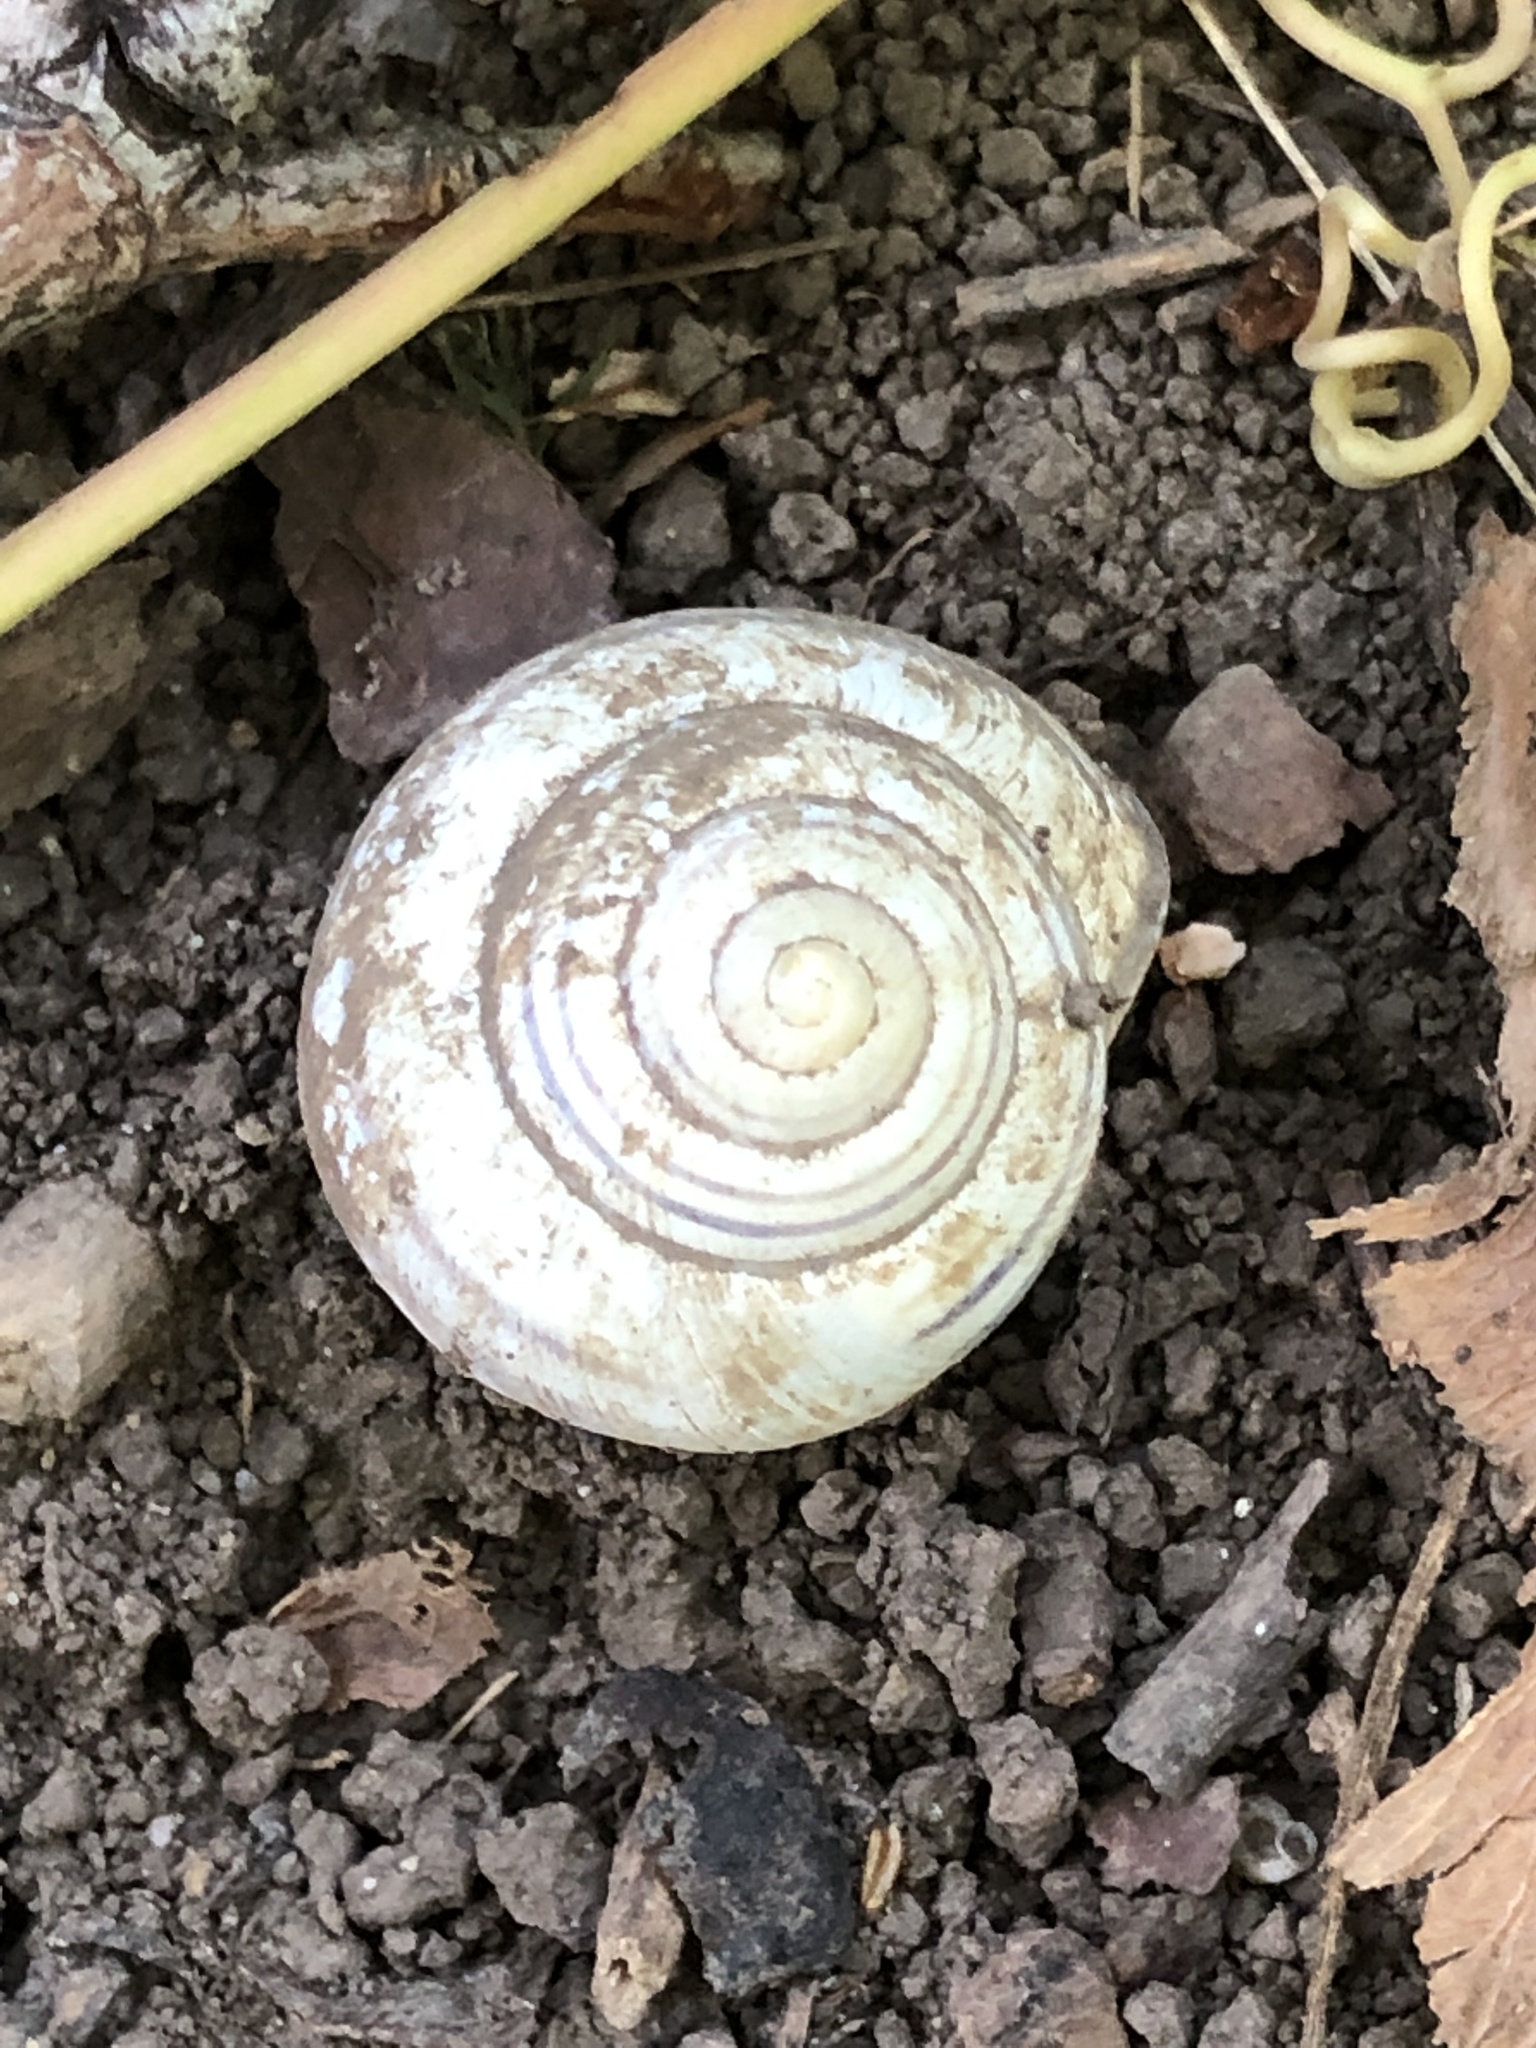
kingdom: Animalia
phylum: Mollusca
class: Gastropoda
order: Stylommatophora
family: Helicidae
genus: Cepaea
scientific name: Cepaea nemoralis
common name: Grovesnail
